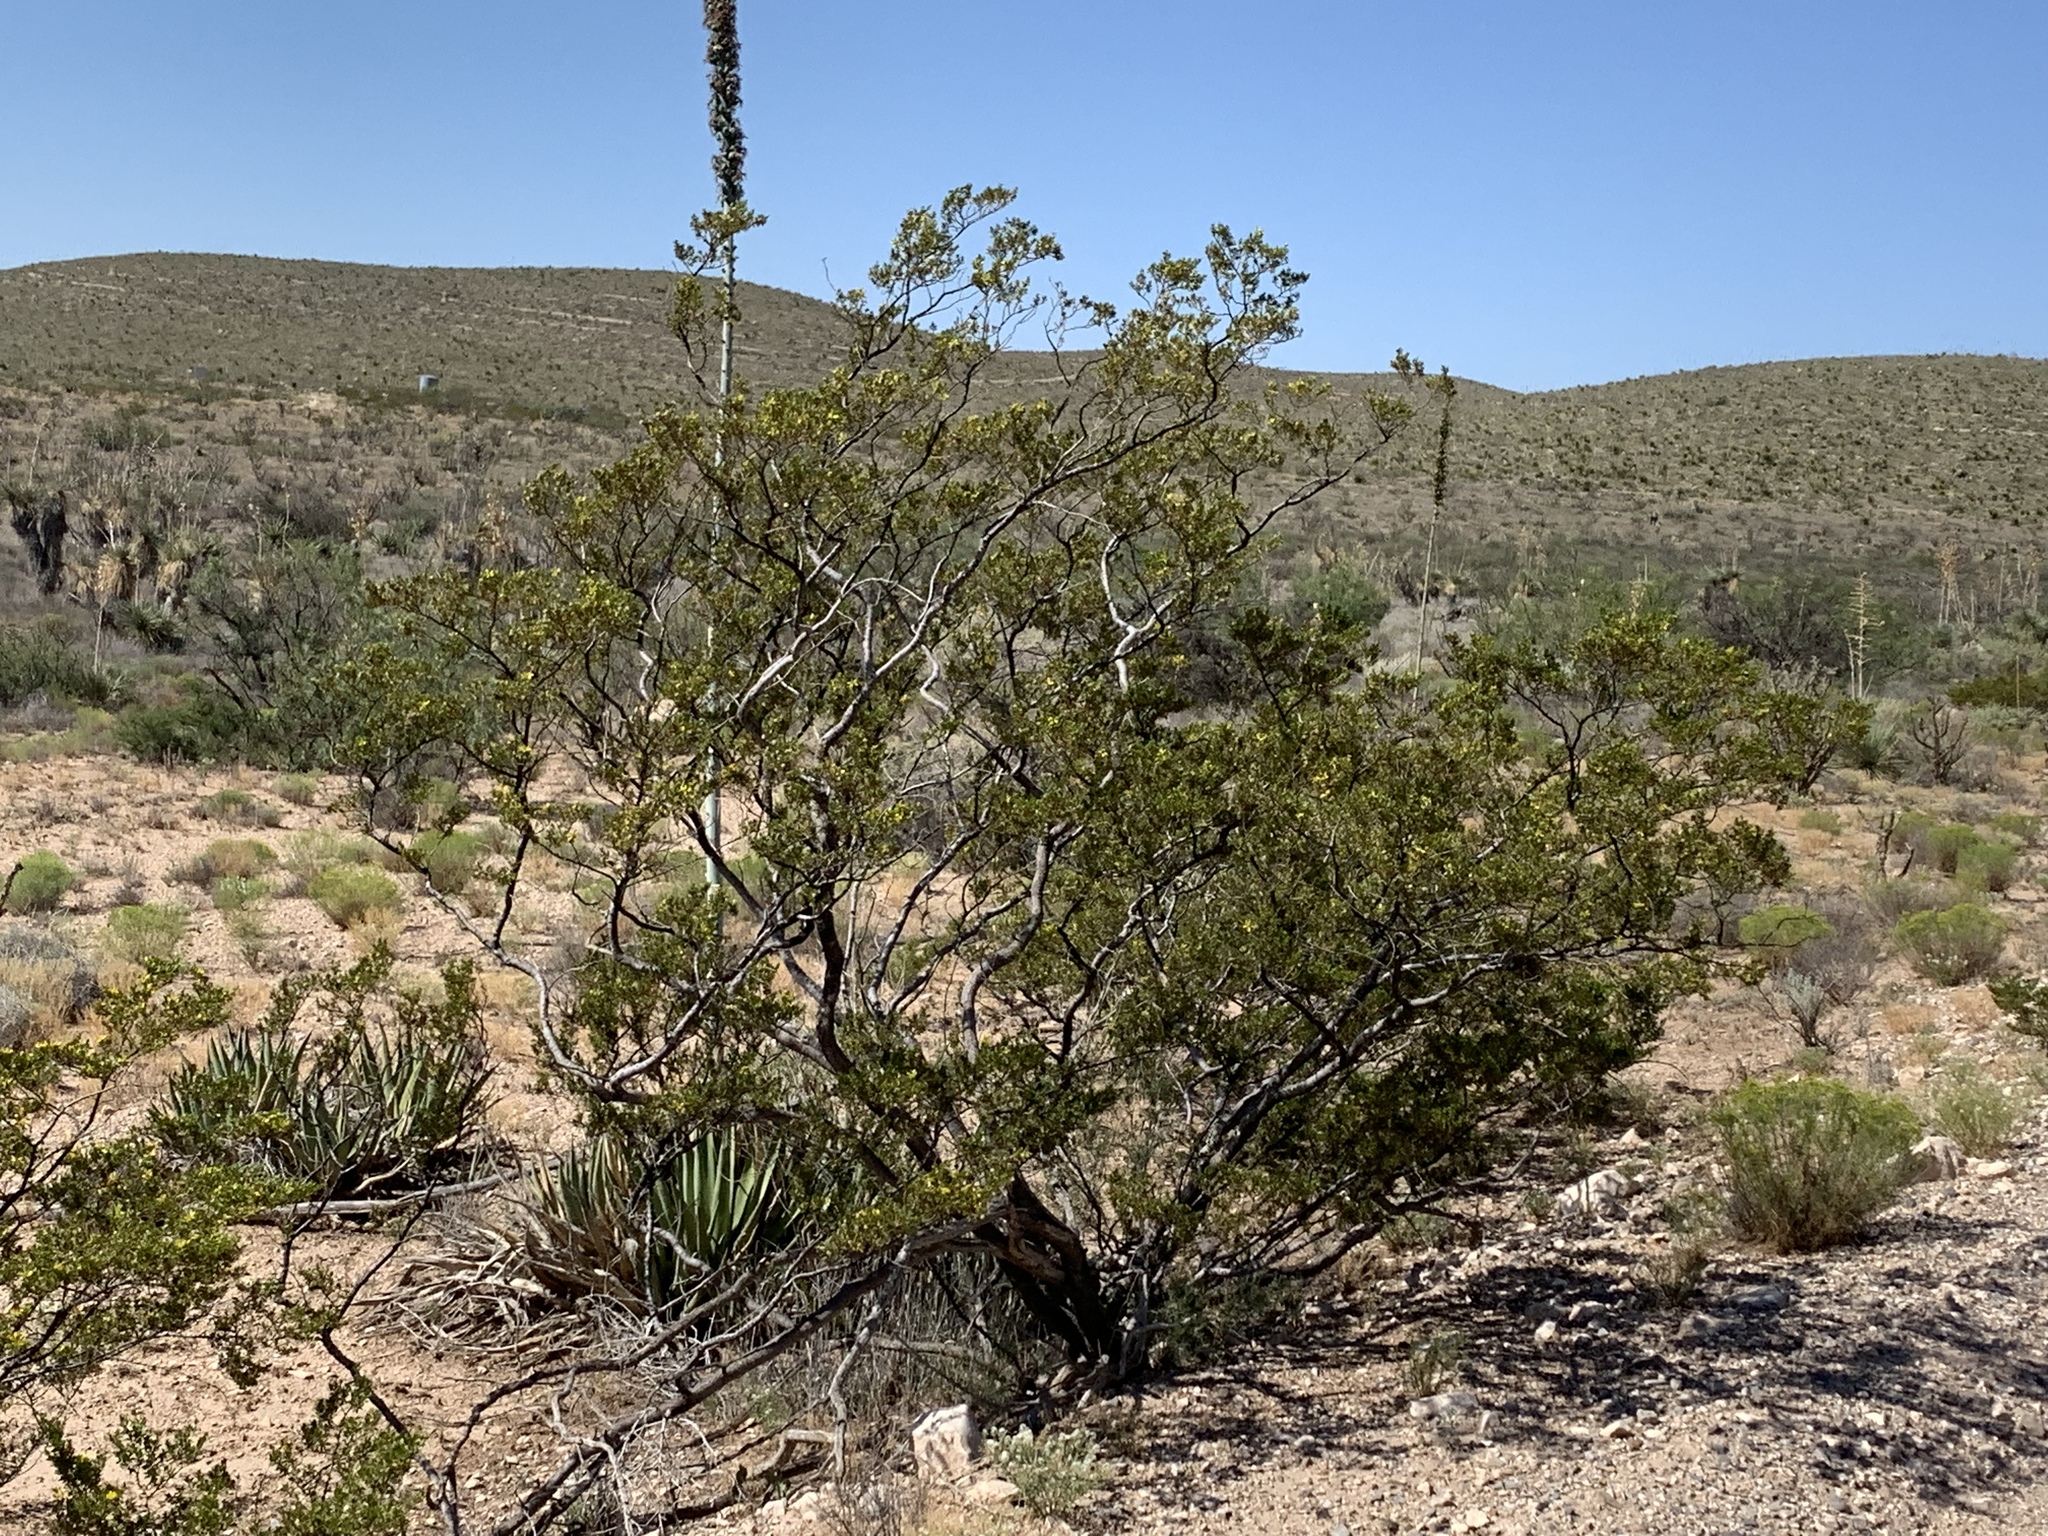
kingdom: Plantae
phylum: Tracheophyta
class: Magnoliopsida
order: Zygophyllales
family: Zygophyllaceae
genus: Larrea
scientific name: Larrea tridentata
